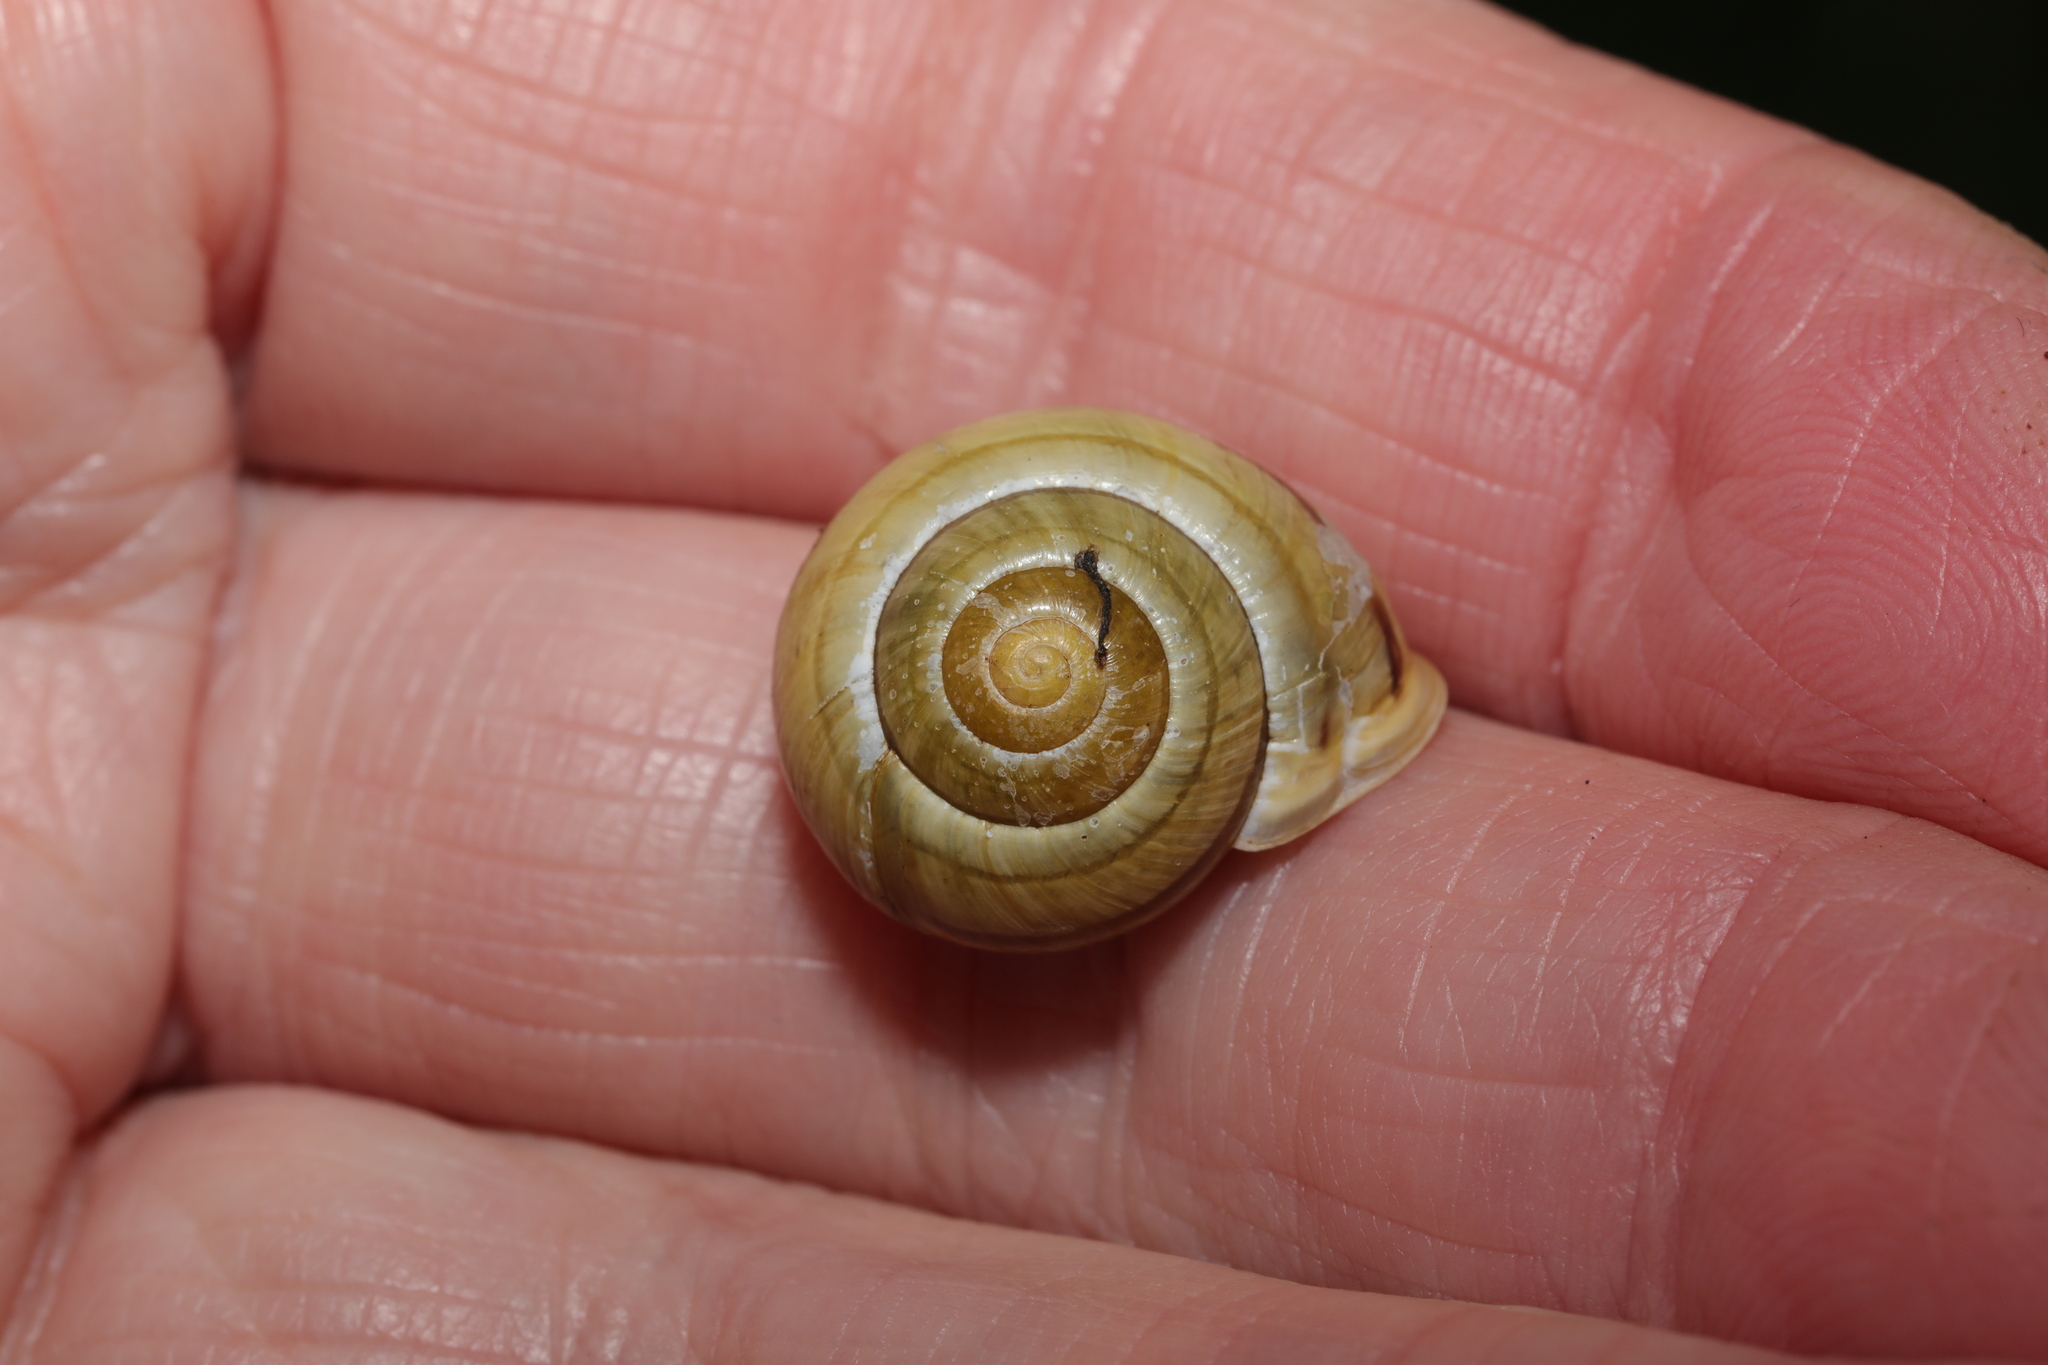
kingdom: Animalia
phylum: Mollusca
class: Gastropoda
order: Stylommatophora
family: Helicidae
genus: Cepaea
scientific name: Cepaea hortensis
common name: White-lip gardensnail
